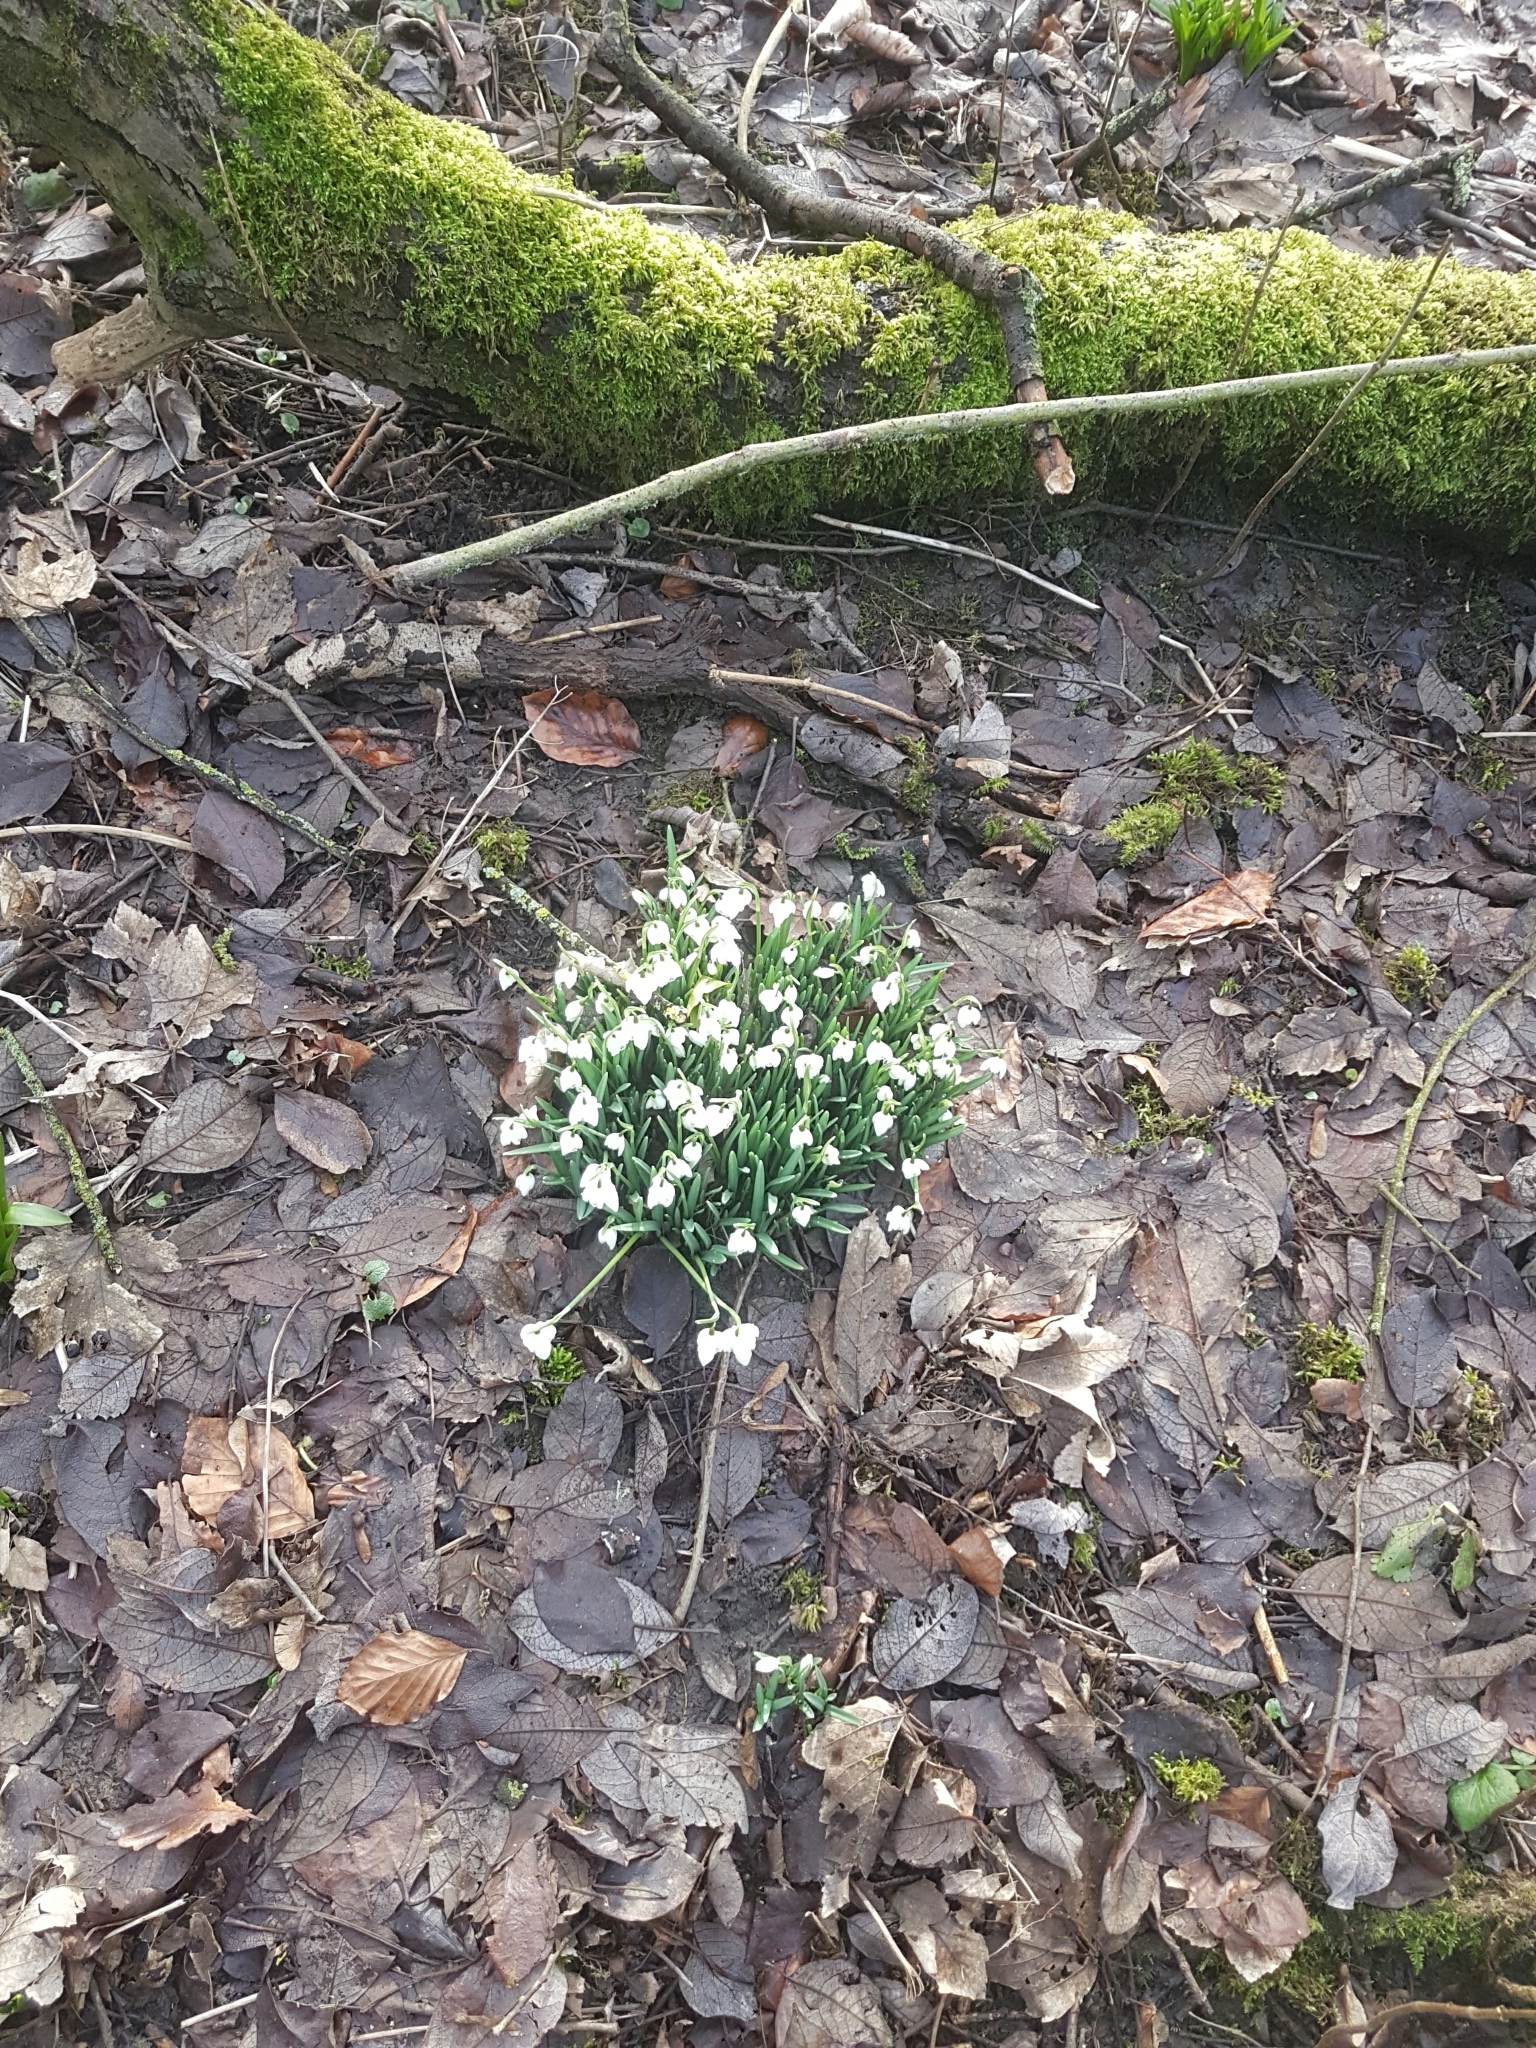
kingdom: Plantae
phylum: Tracheophyta
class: Liliopsida
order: Asparagales
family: Amaryllidaceae
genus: Galanthus
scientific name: Galanthus nivalis
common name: Snowdrop
